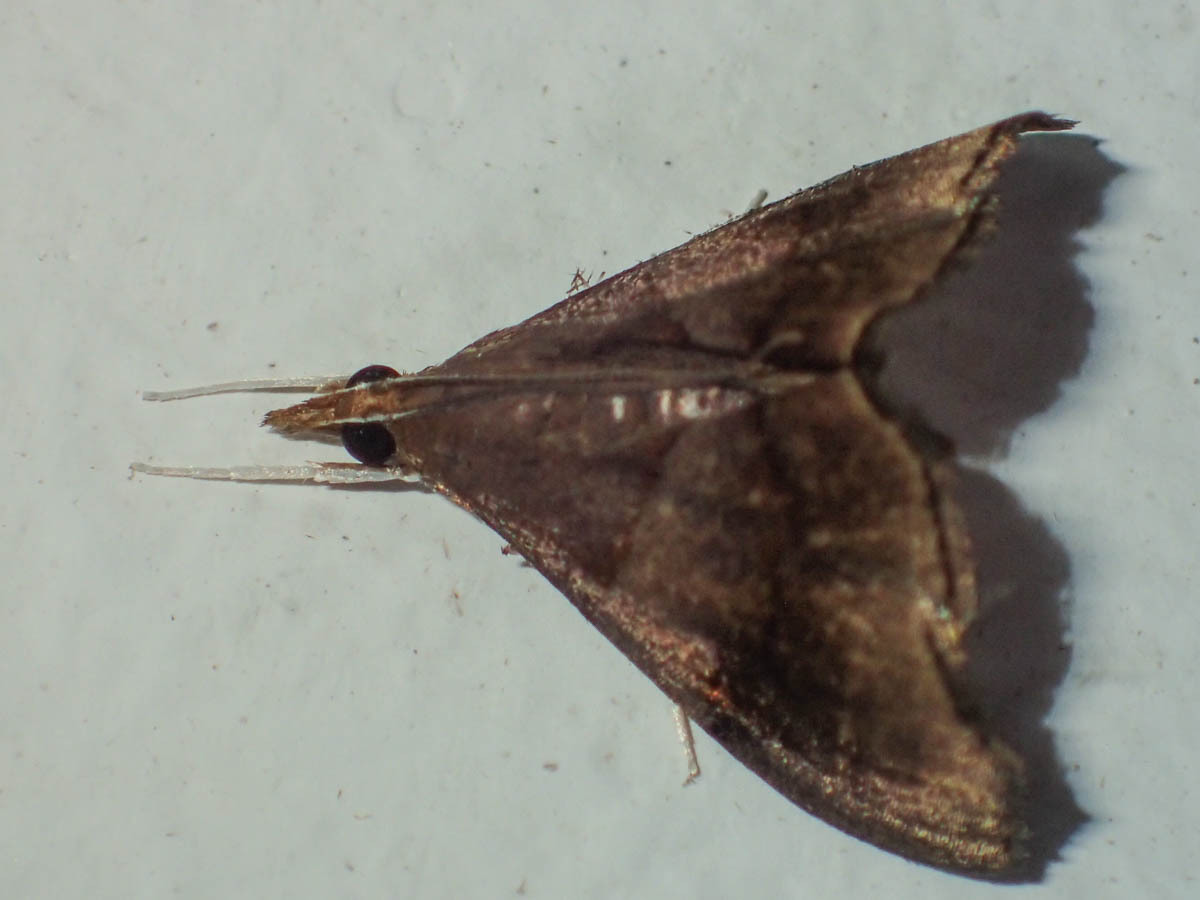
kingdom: Animalia
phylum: Arthropoda
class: Insecta
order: Lepidoptera
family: Crambidae
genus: Hemiscopis
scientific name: Hemiscopis violacea
